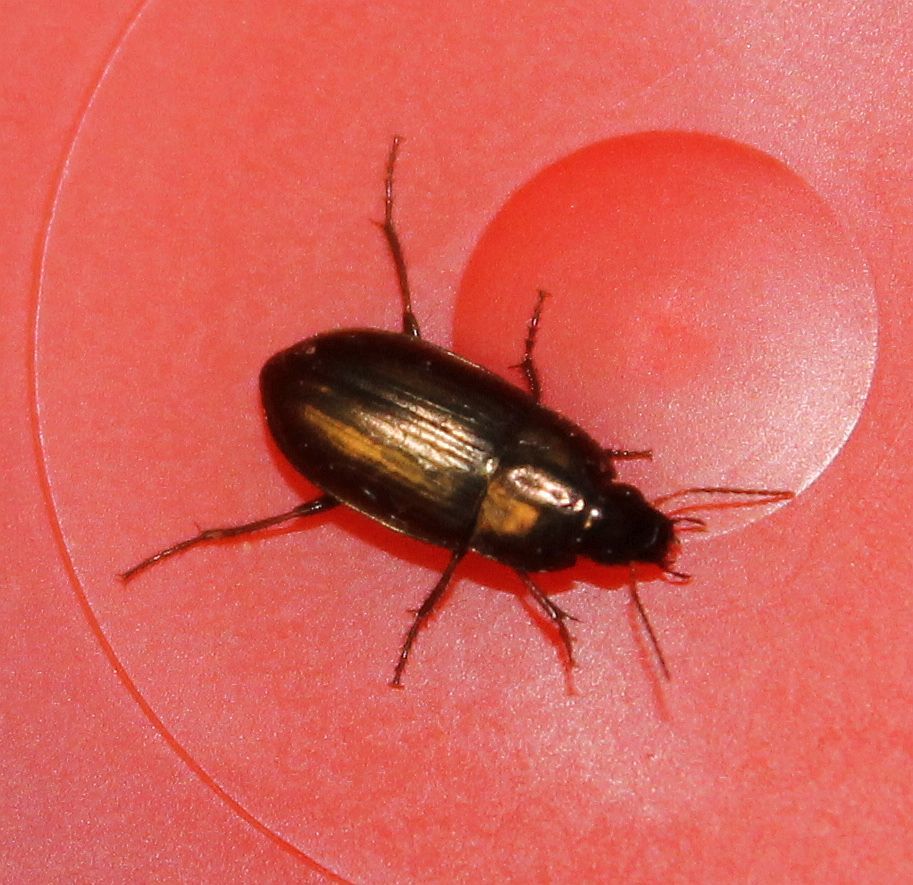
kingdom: Animalia
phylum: Arthropoda
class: Insecta
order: Coleoptera
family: Carabidae
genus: Amara
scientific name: Amara aenea
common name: Common sun beetle
